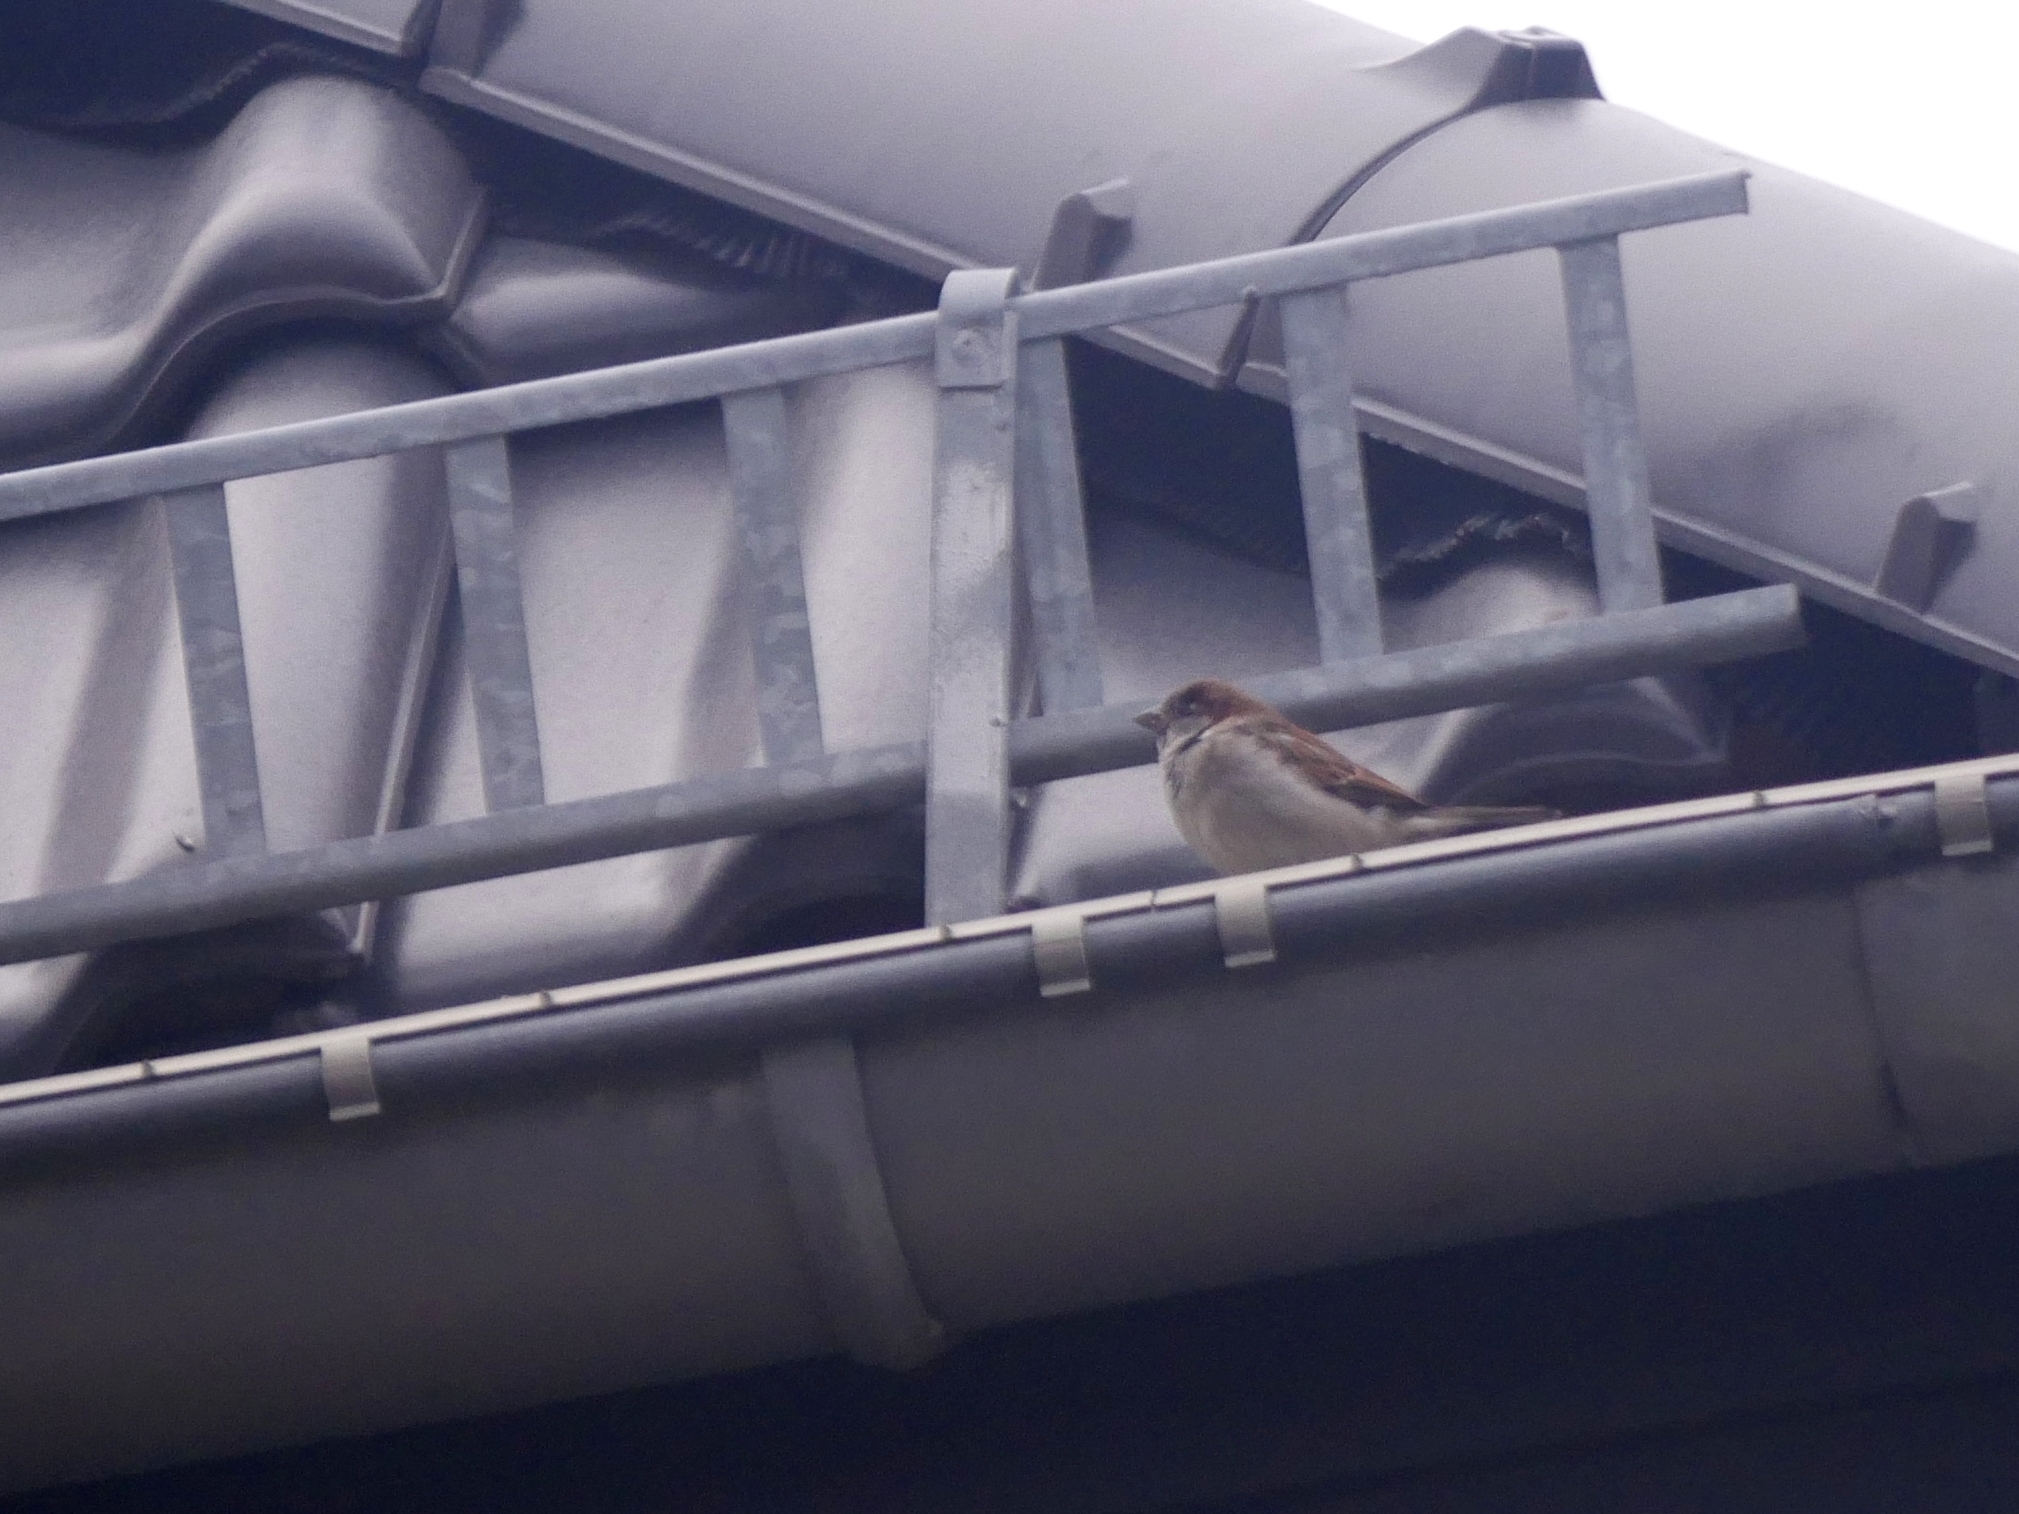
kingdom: Animalia
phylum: Chordata
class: Aves
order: Passeriformes
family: Passeridae
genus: Passer
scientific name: Passer domesticus
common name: House sparrow
